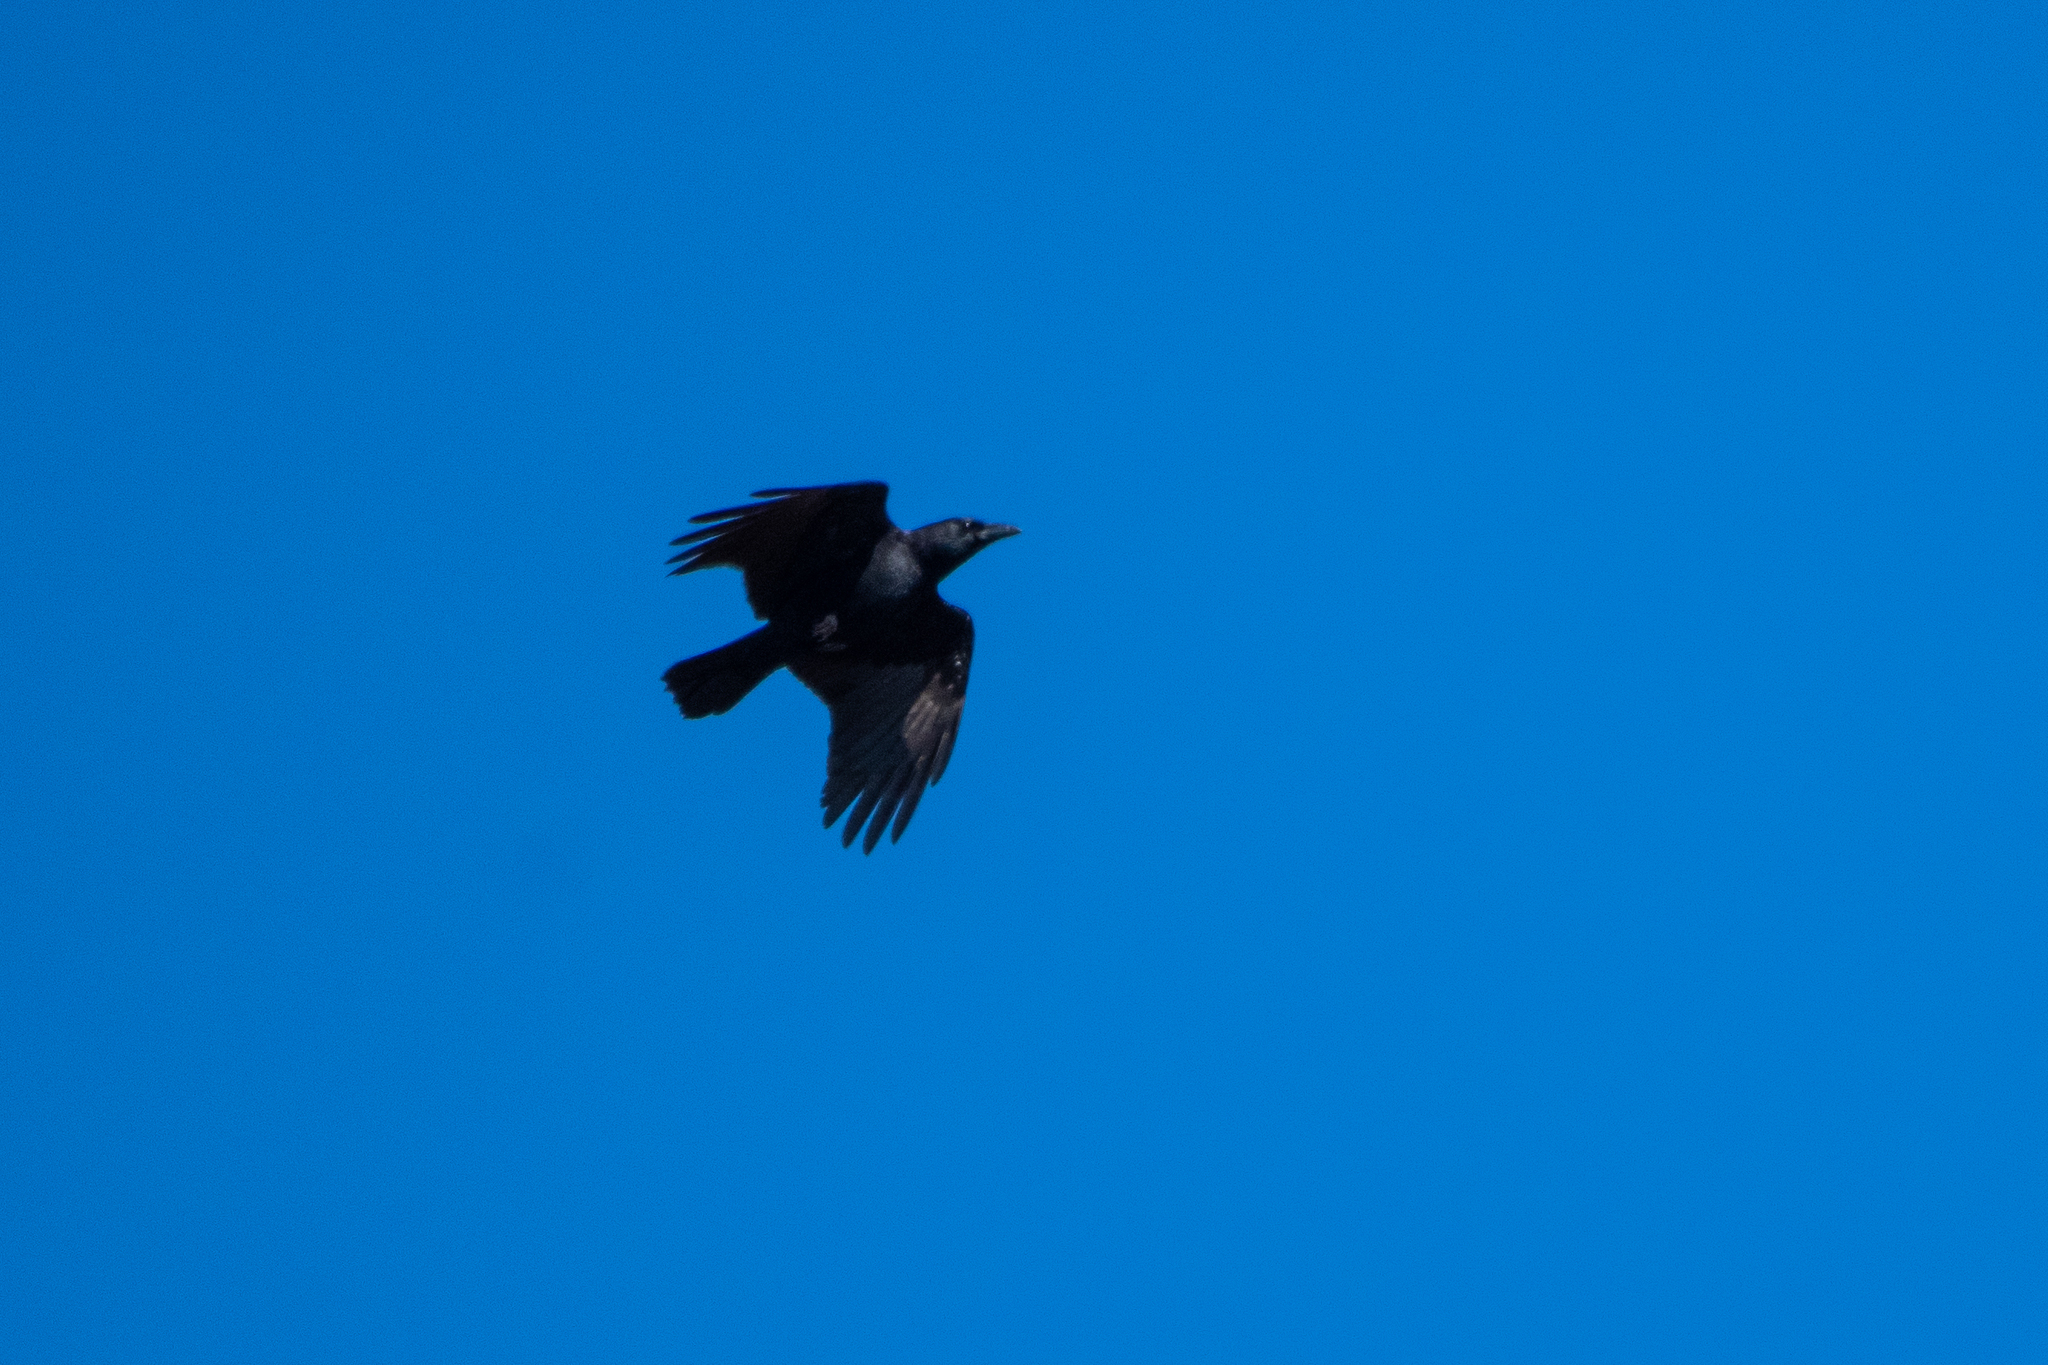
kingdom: Animalia
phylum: Chordata
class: Aves
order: Passeriformes
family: Corvidae
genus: Corvus
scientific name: Corvus brachyrhynchos
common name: American crow
